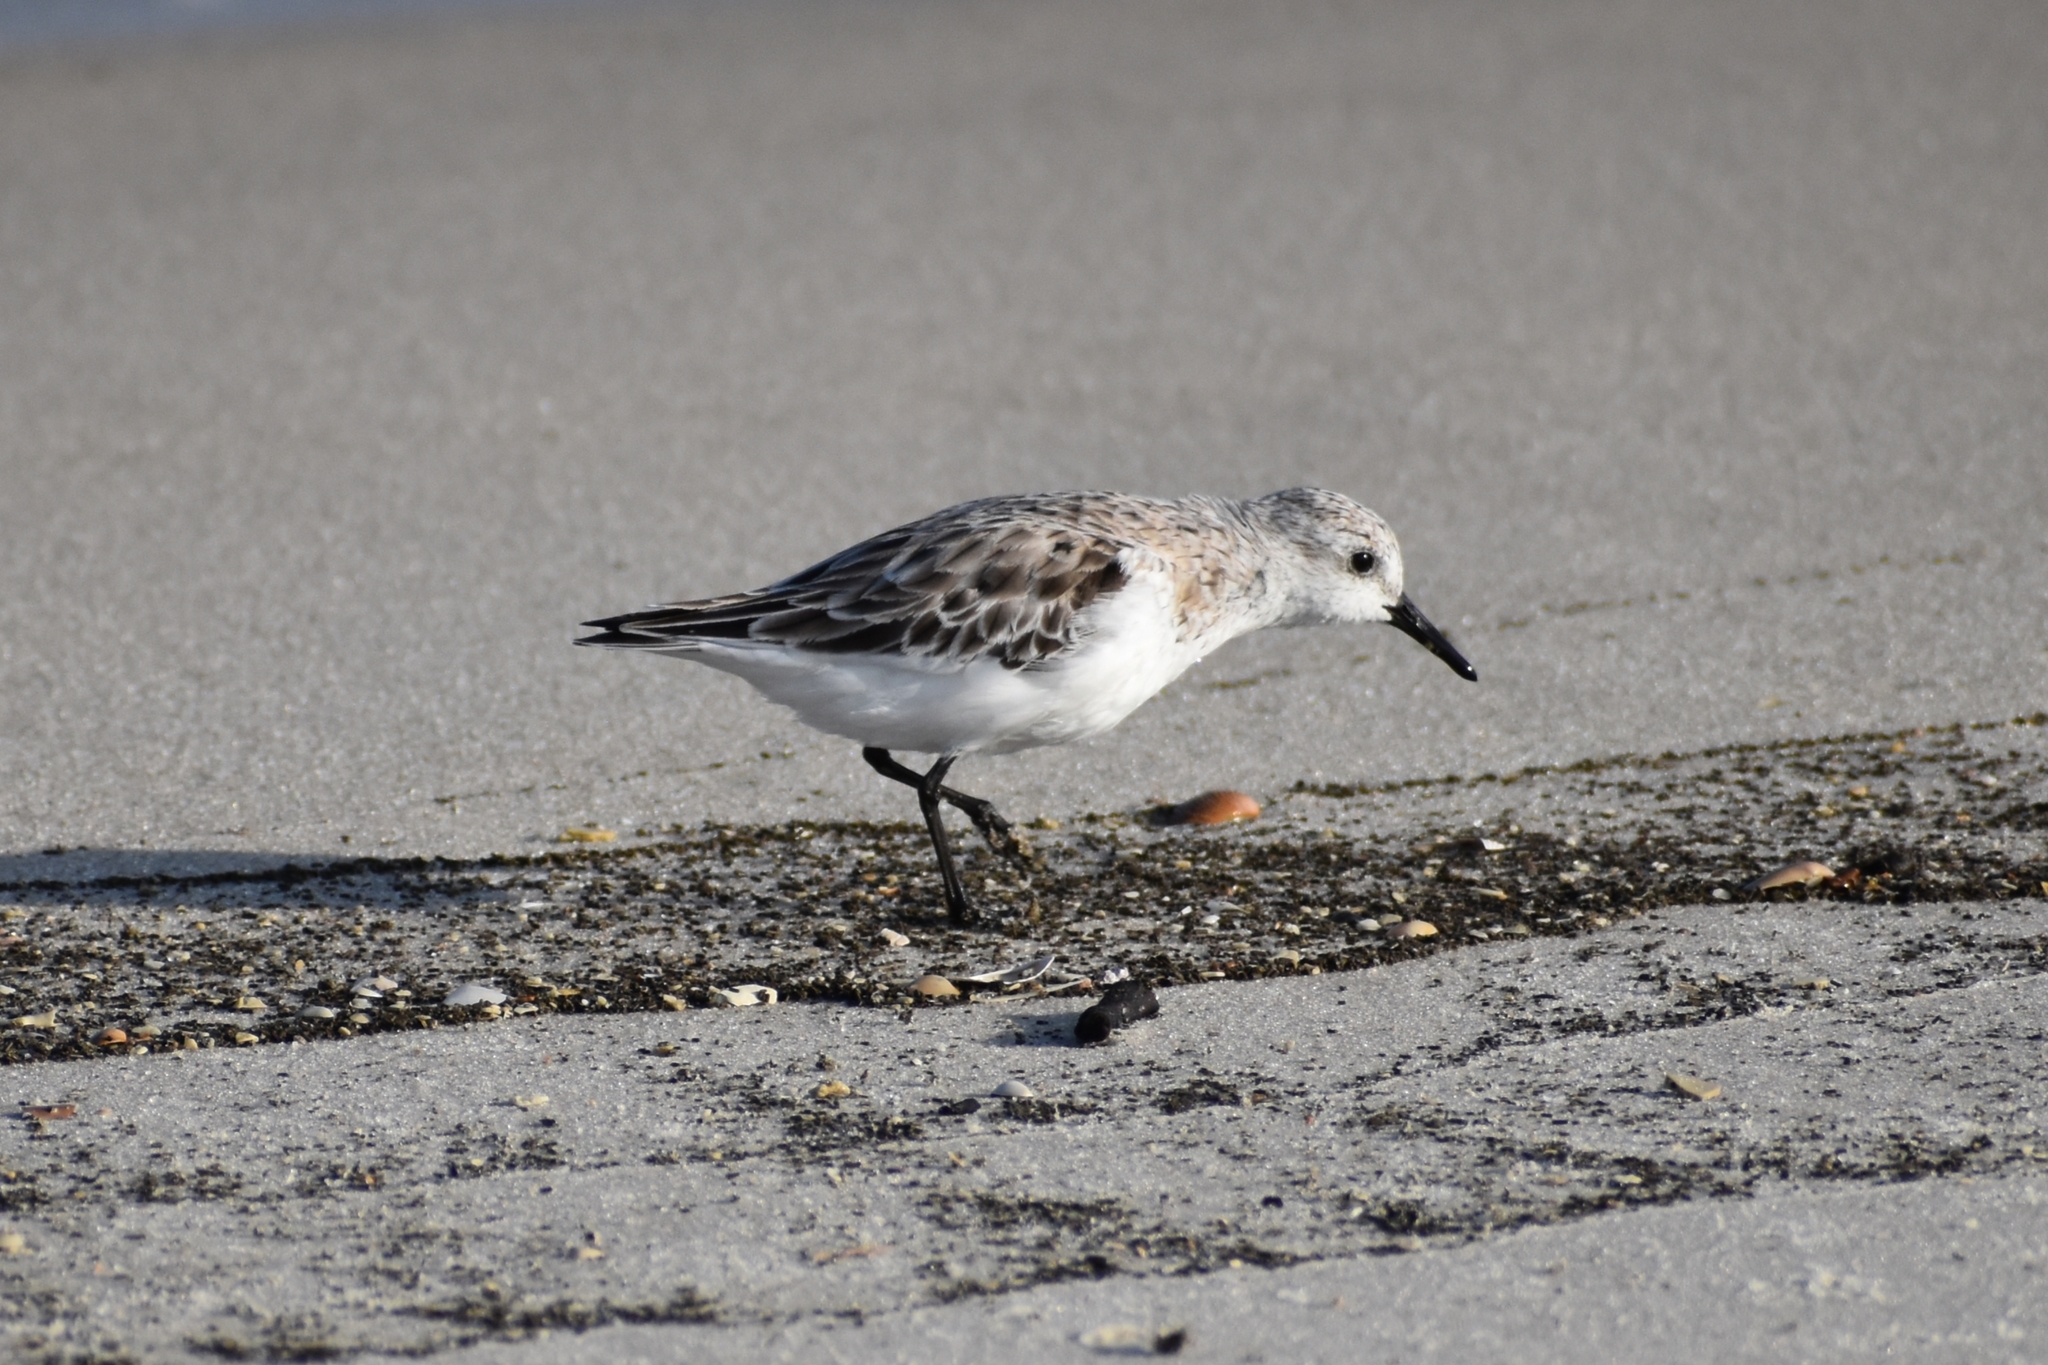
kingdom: Animalia
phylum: Chordata
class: Aves
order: Charadriiformes
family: Scolopacidae
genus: Calidris
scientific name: Calidris alba
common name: Sanderling
